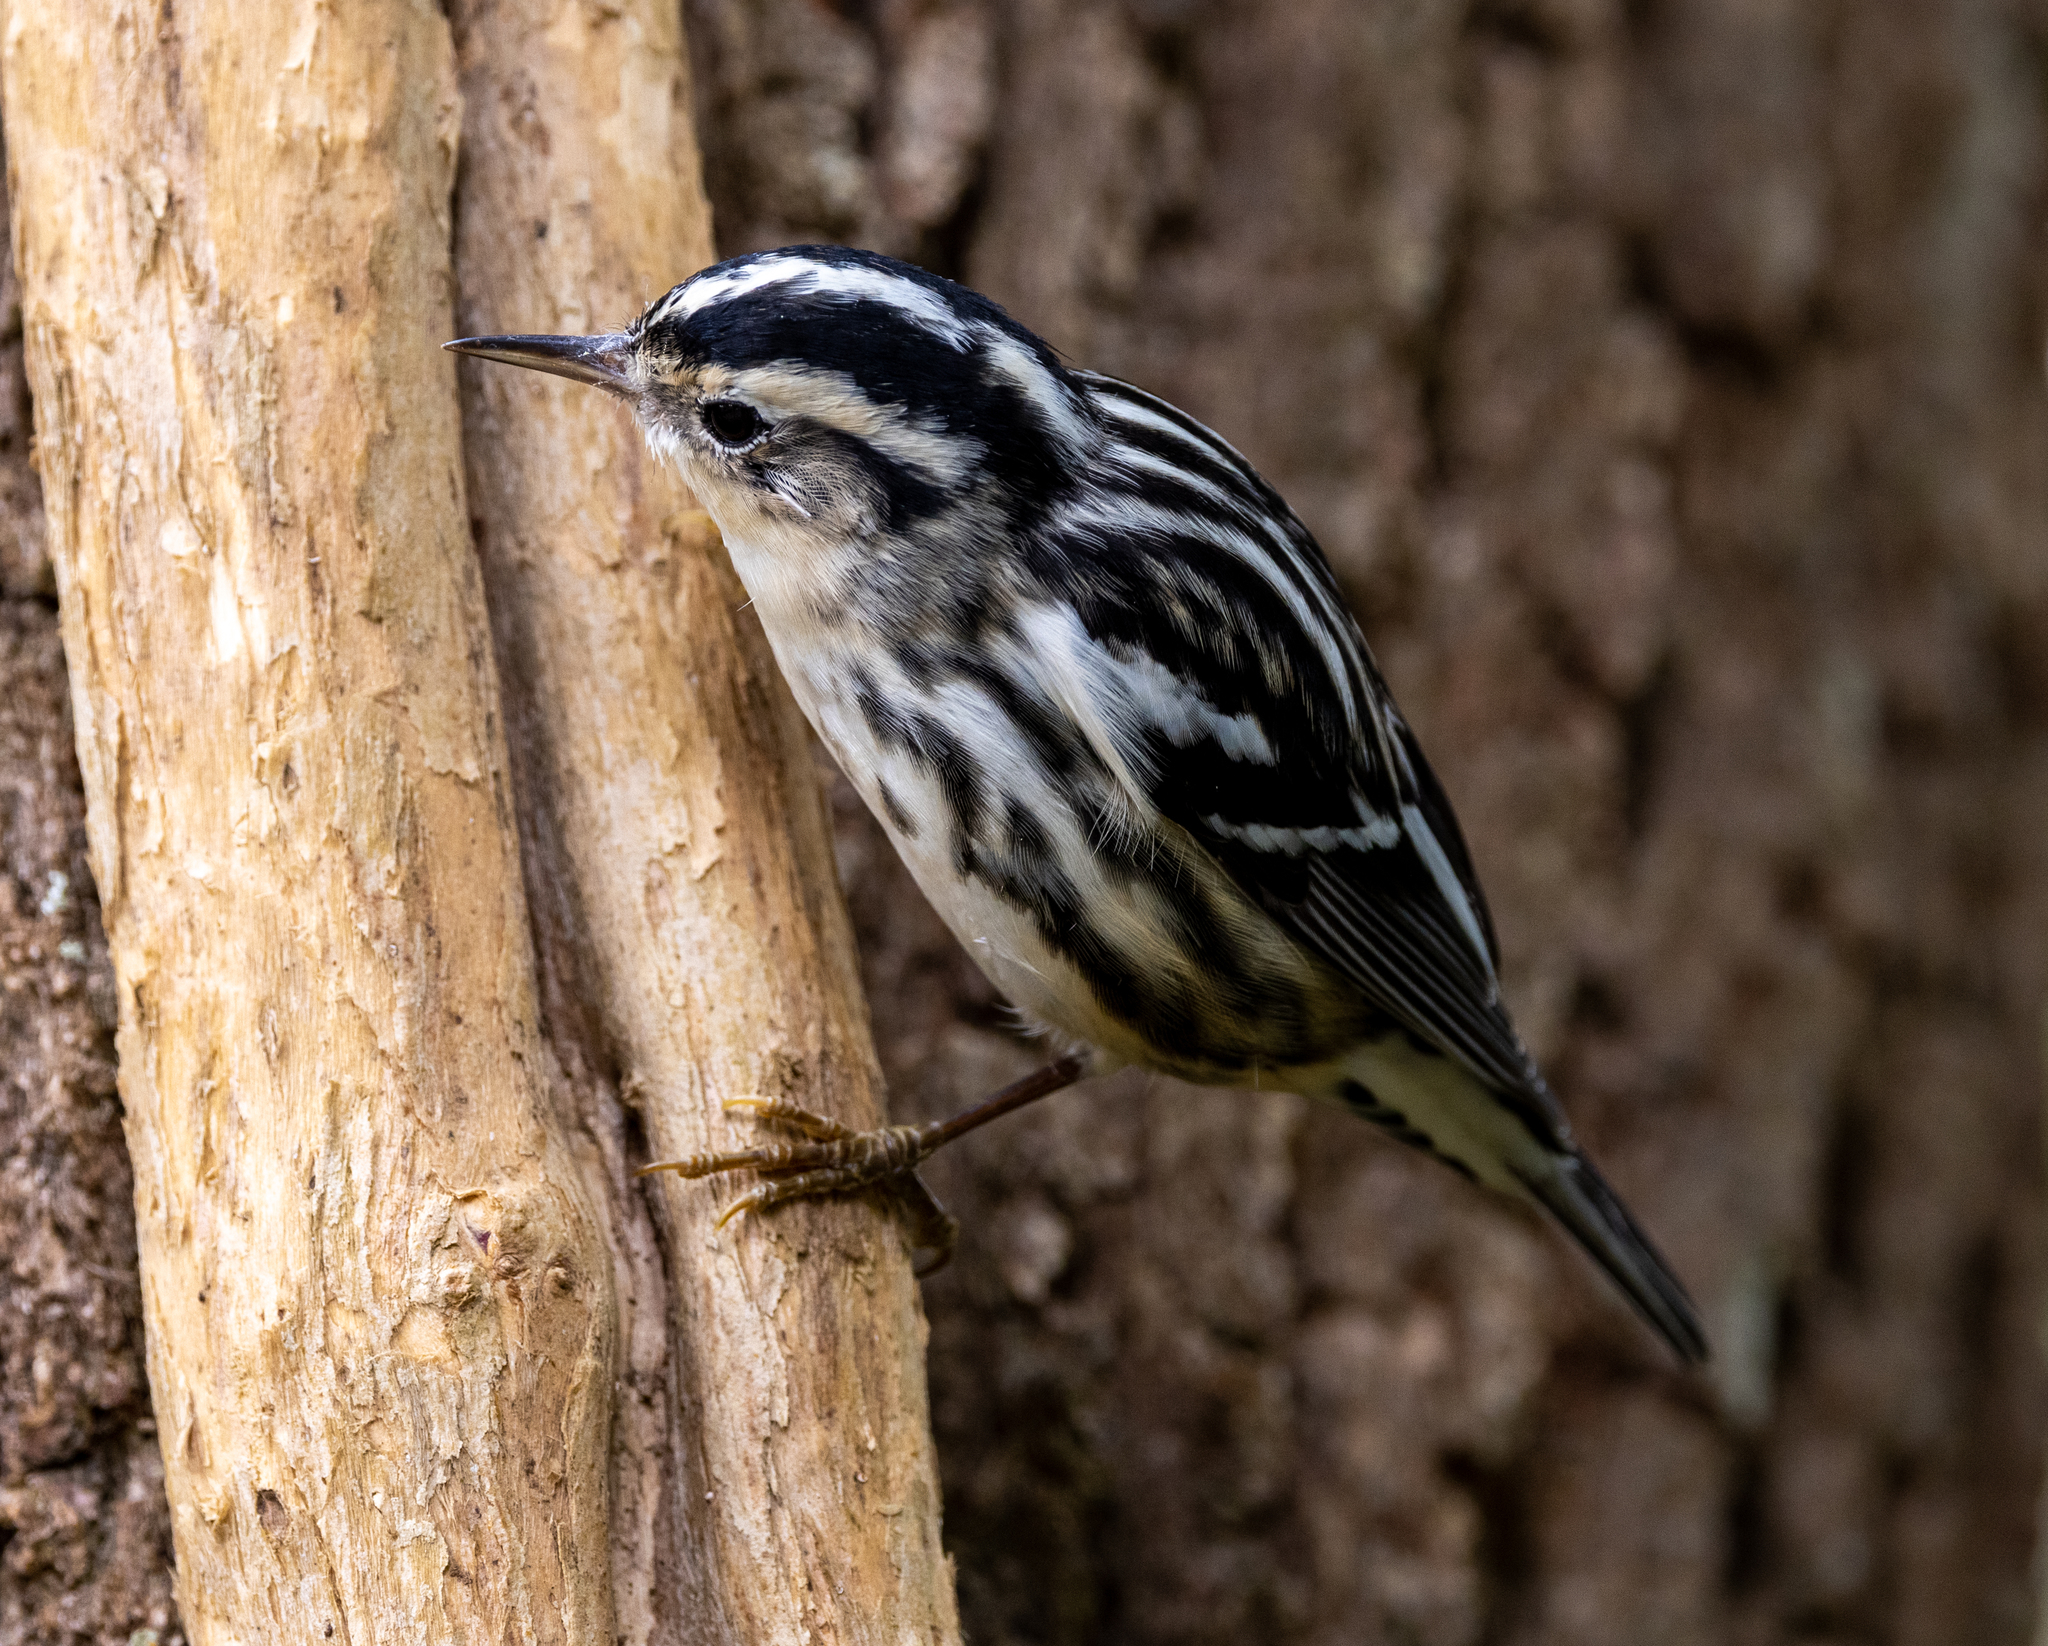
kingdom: Animalia
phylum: Chordata
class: Aves
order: Passeriformes
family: Parulidae
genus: Mniotilta
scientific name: Mniotilta varia
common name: Black-and-white warbler
